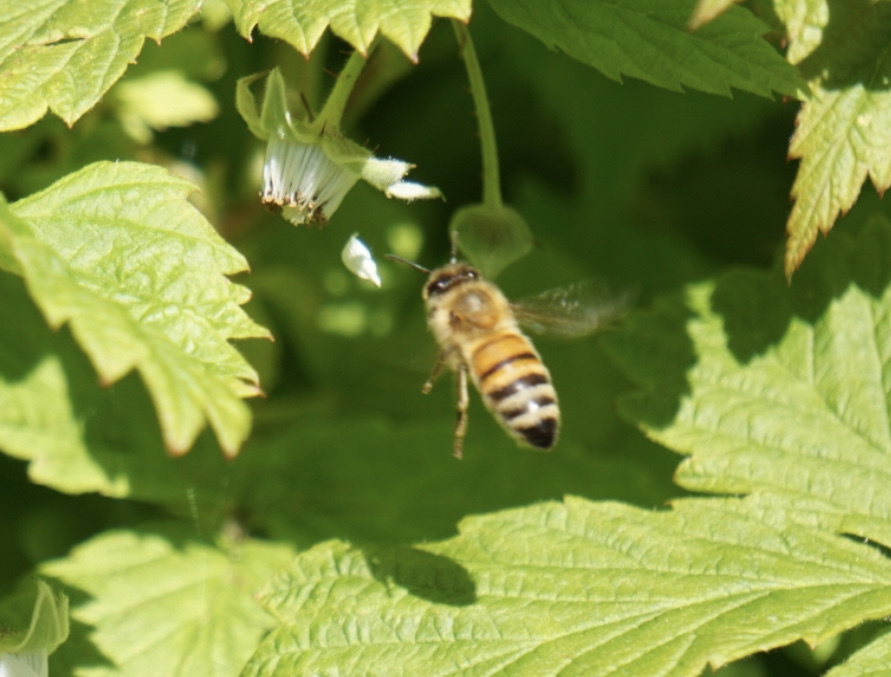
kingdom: Animalia
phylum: Arthropoda
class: Insecta
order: Hymenoptera
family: Apidae
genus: Apis
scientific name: Apis mellifera
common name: Honey bee
